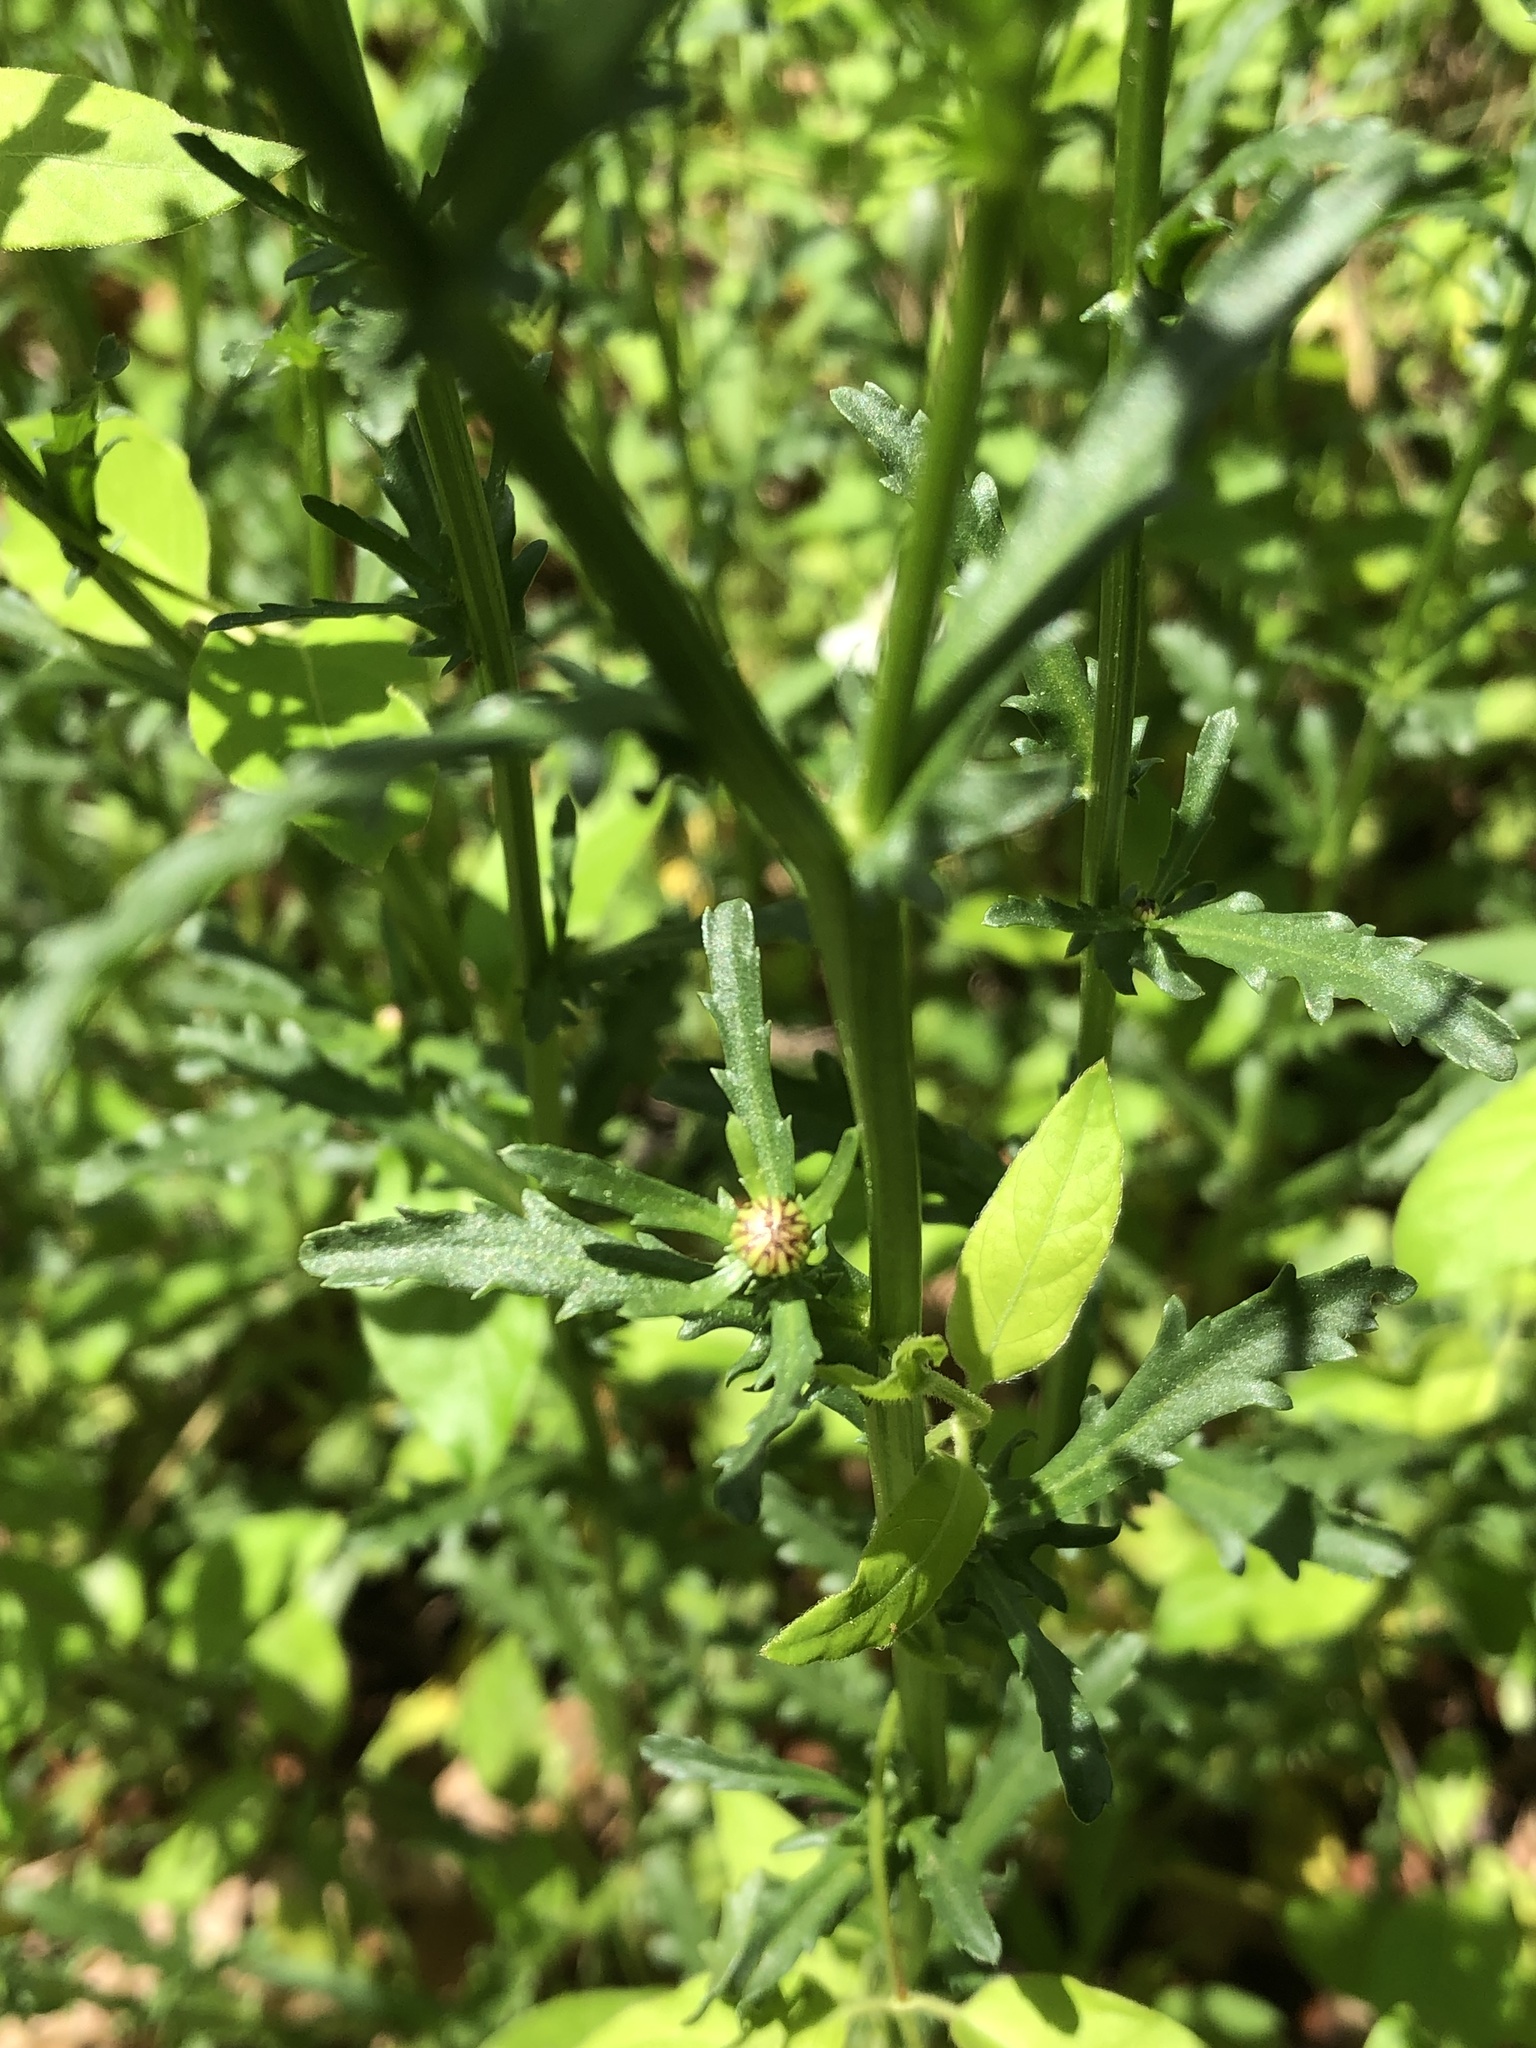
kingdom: Plantae
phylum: Tracheophyta
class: Magnoliopsida
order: Asterales
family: Asteraceae
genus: Leucanthemum
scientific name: Leucanthemum vulgare
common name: Oxeye daisy
